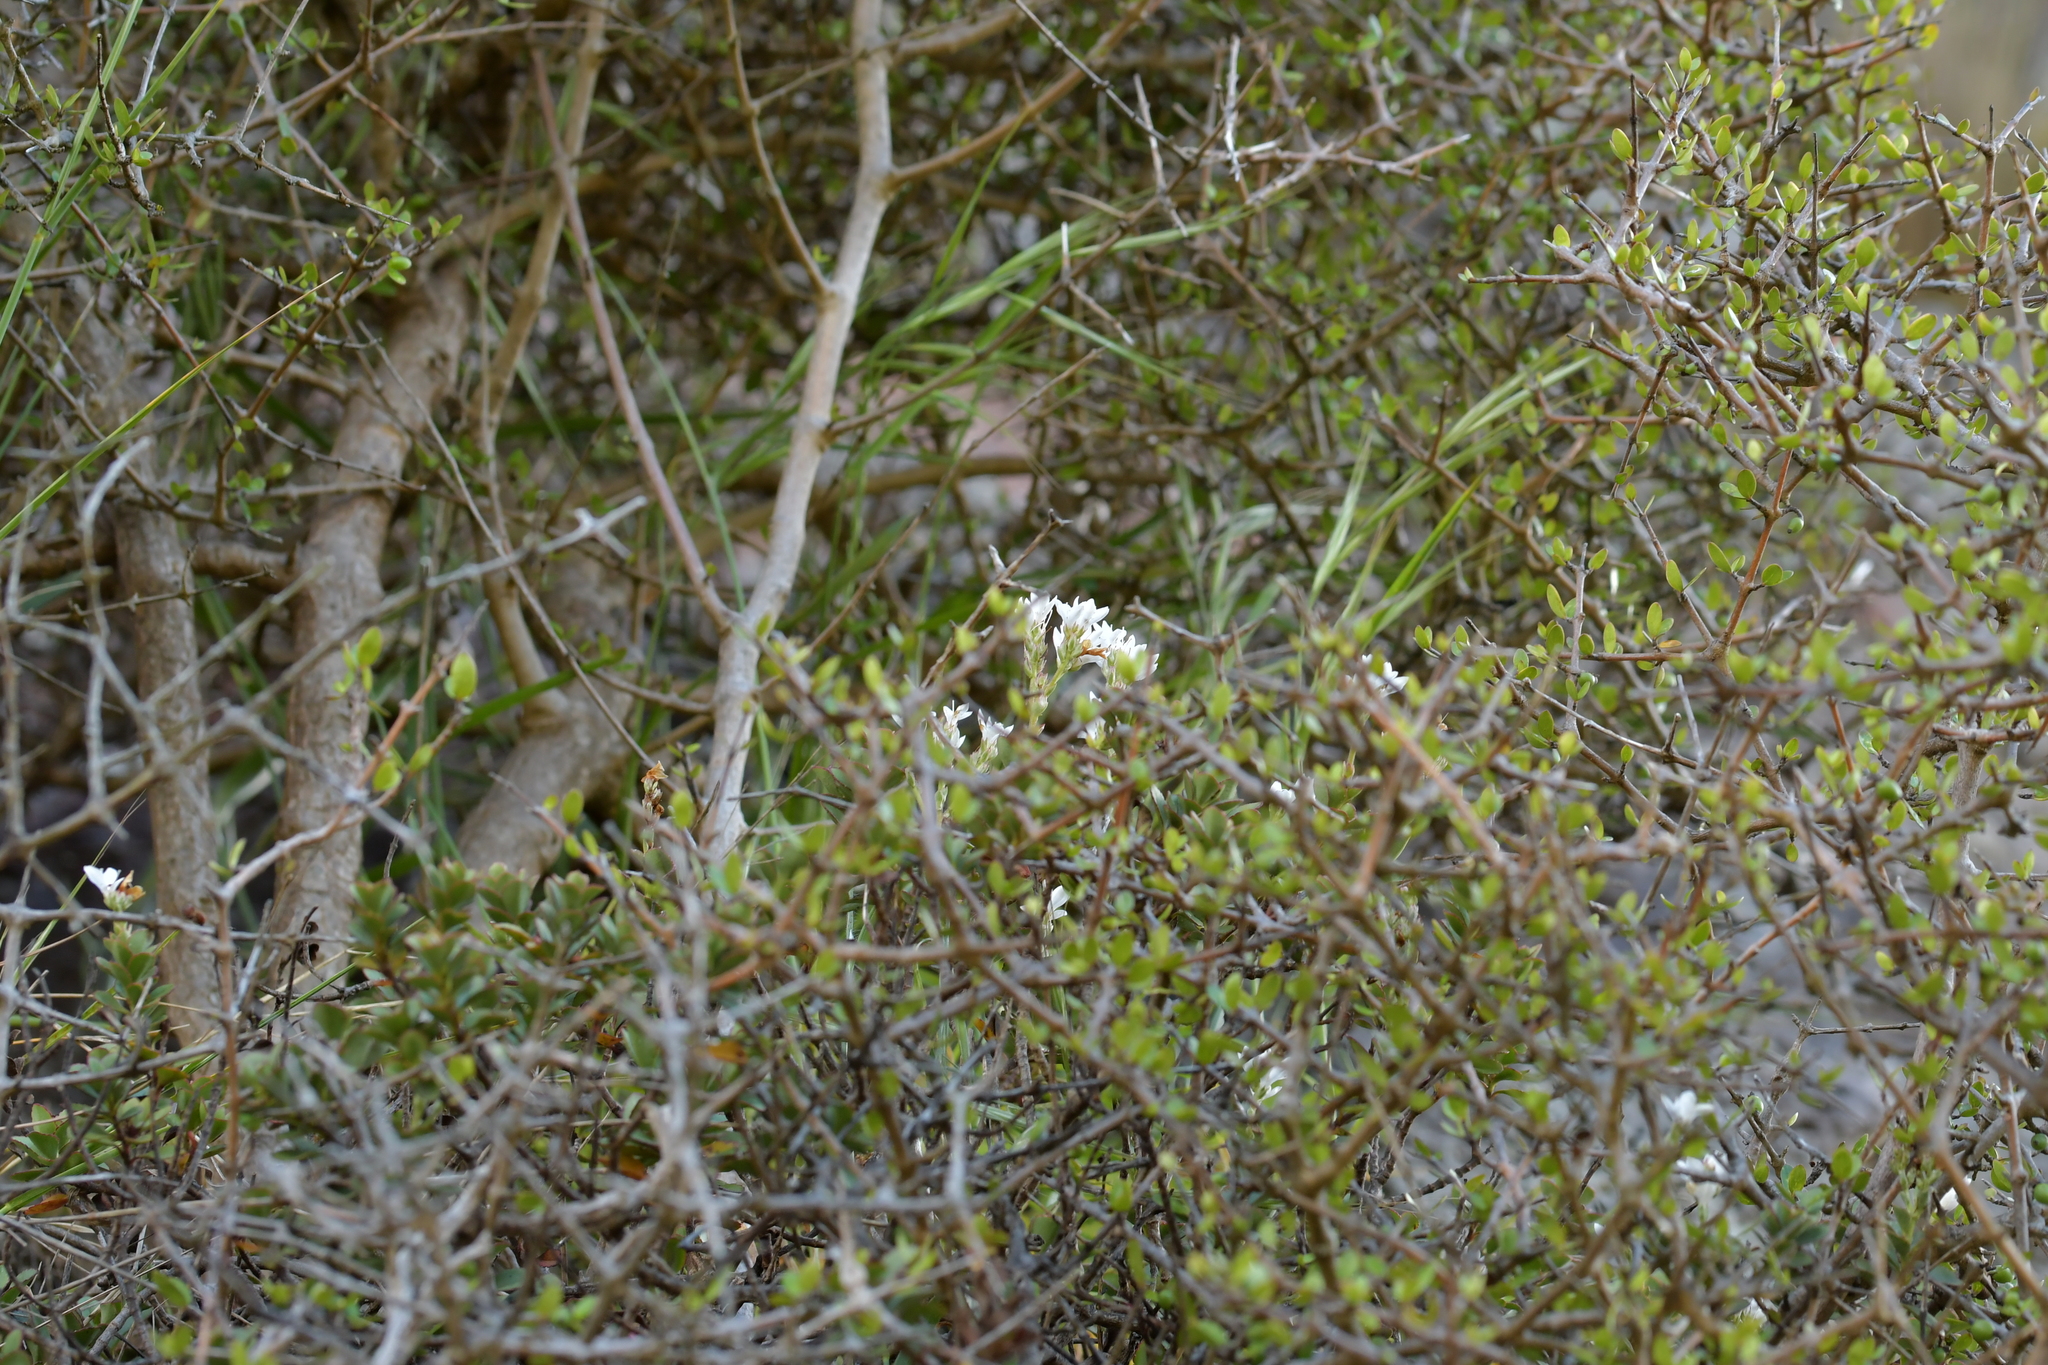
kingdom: Plantae
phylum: Tracheophyta
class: Magnoliopsida
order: Lamiales
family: Plantaginaceae
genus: Veronica
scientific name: Veronica lavaudiana
